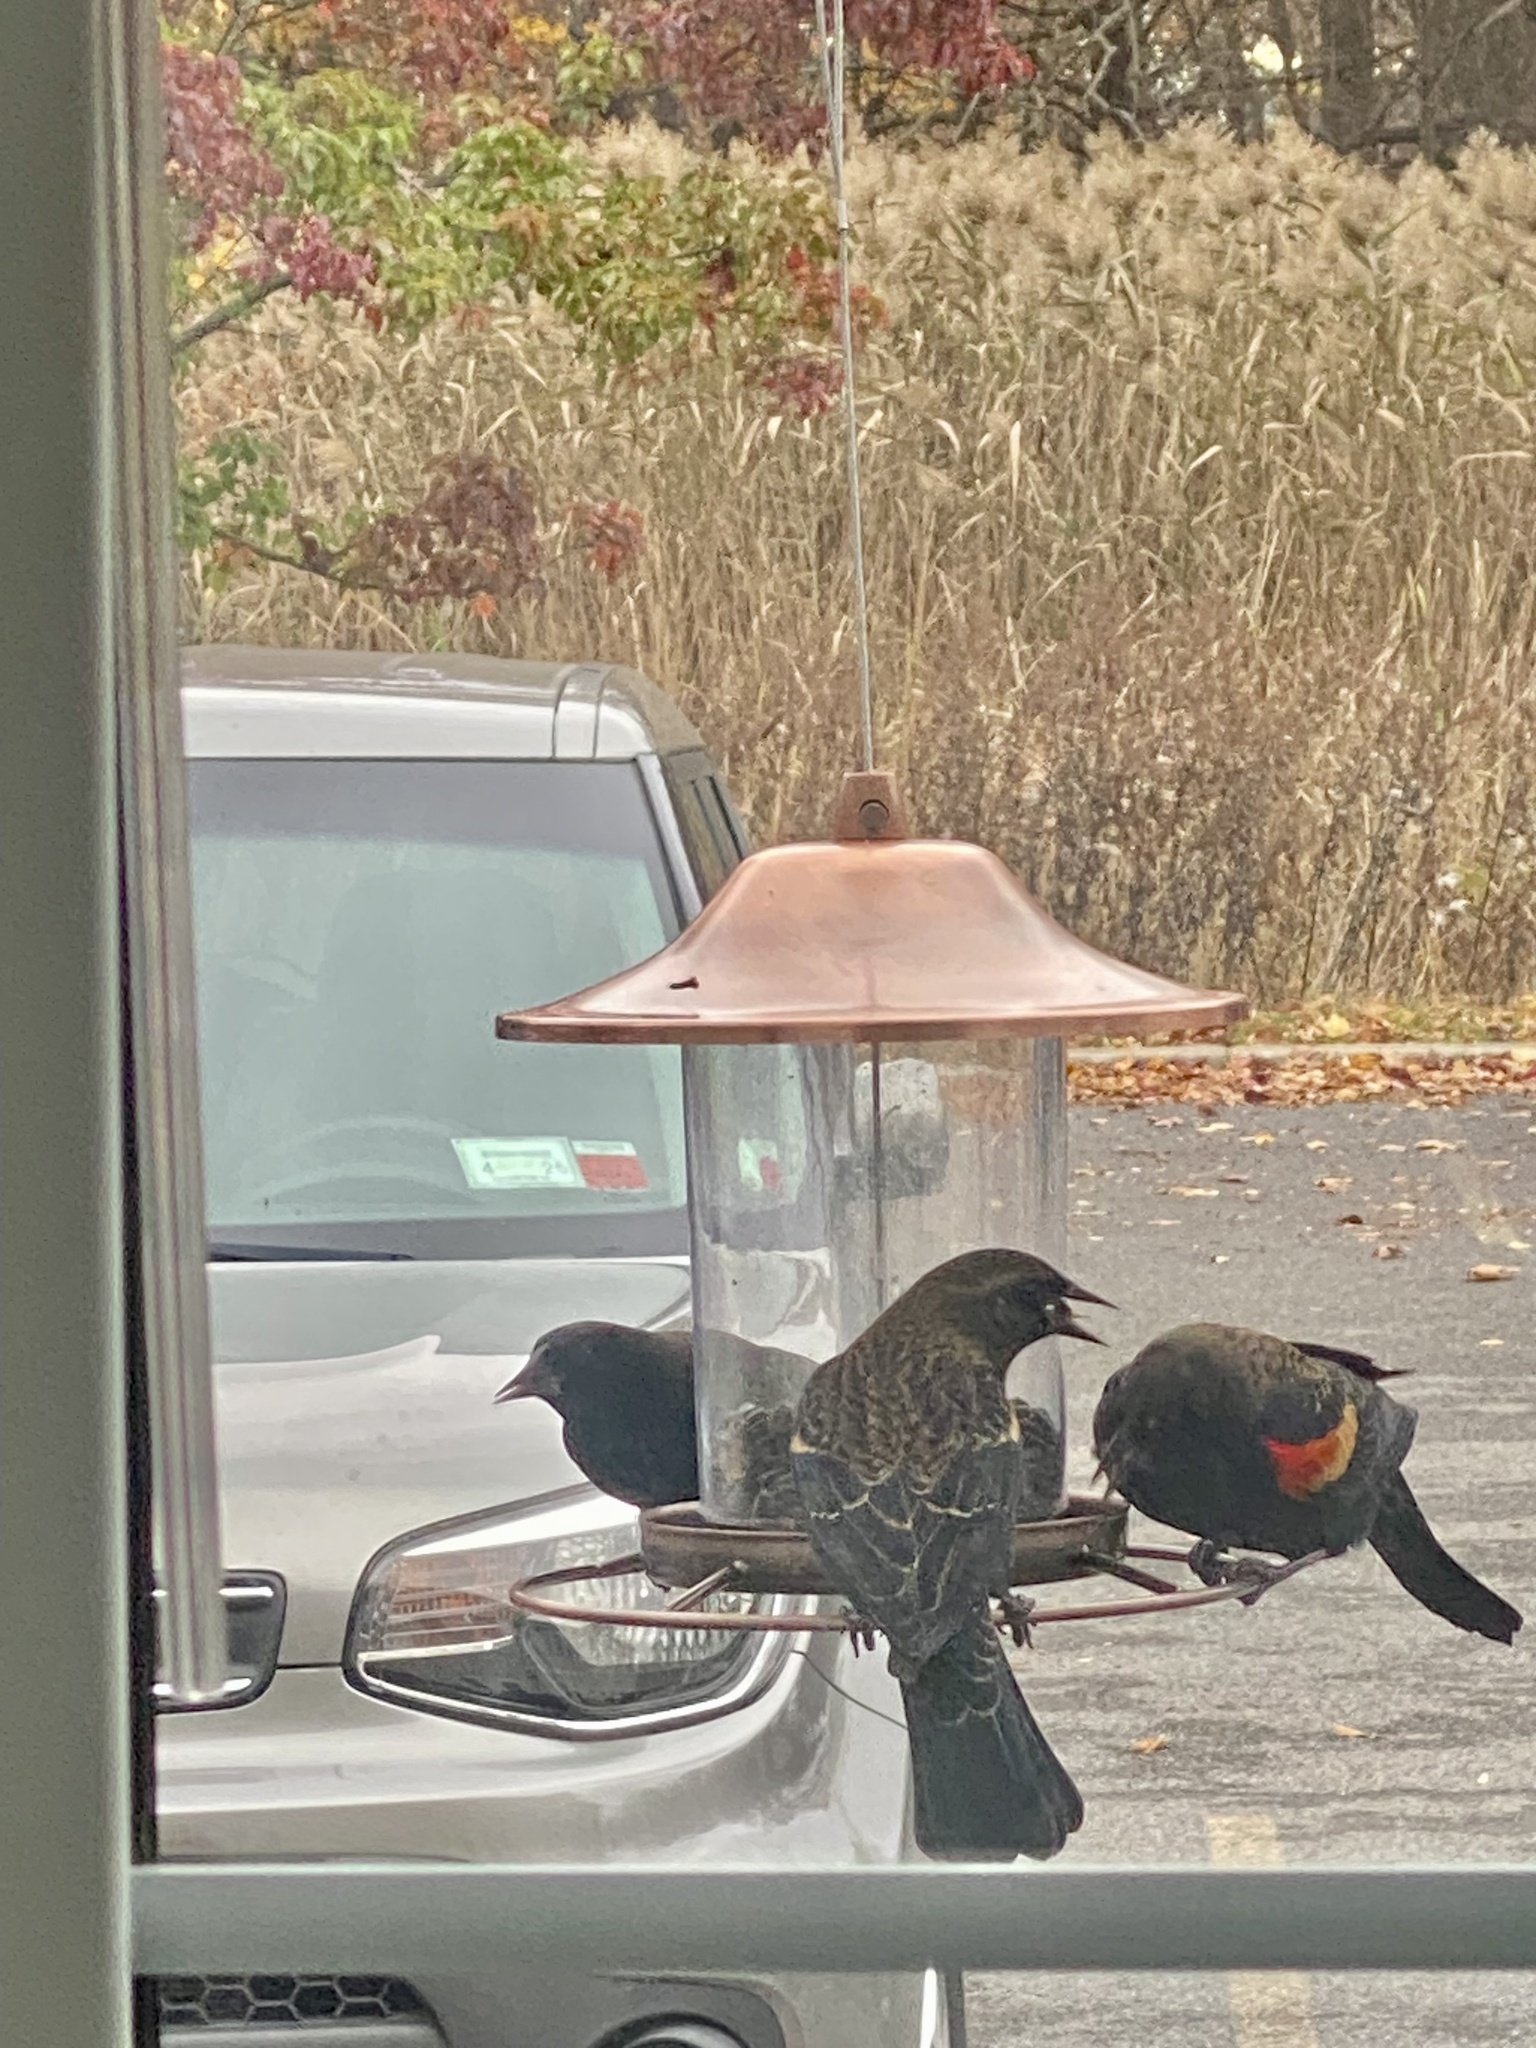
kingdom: Animalia
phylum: Chordata
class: Aves
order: Passeriformes
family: Icteridae
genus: Agelaius
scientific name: Agelaius phoeniceus
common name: Red-winged blackbird
